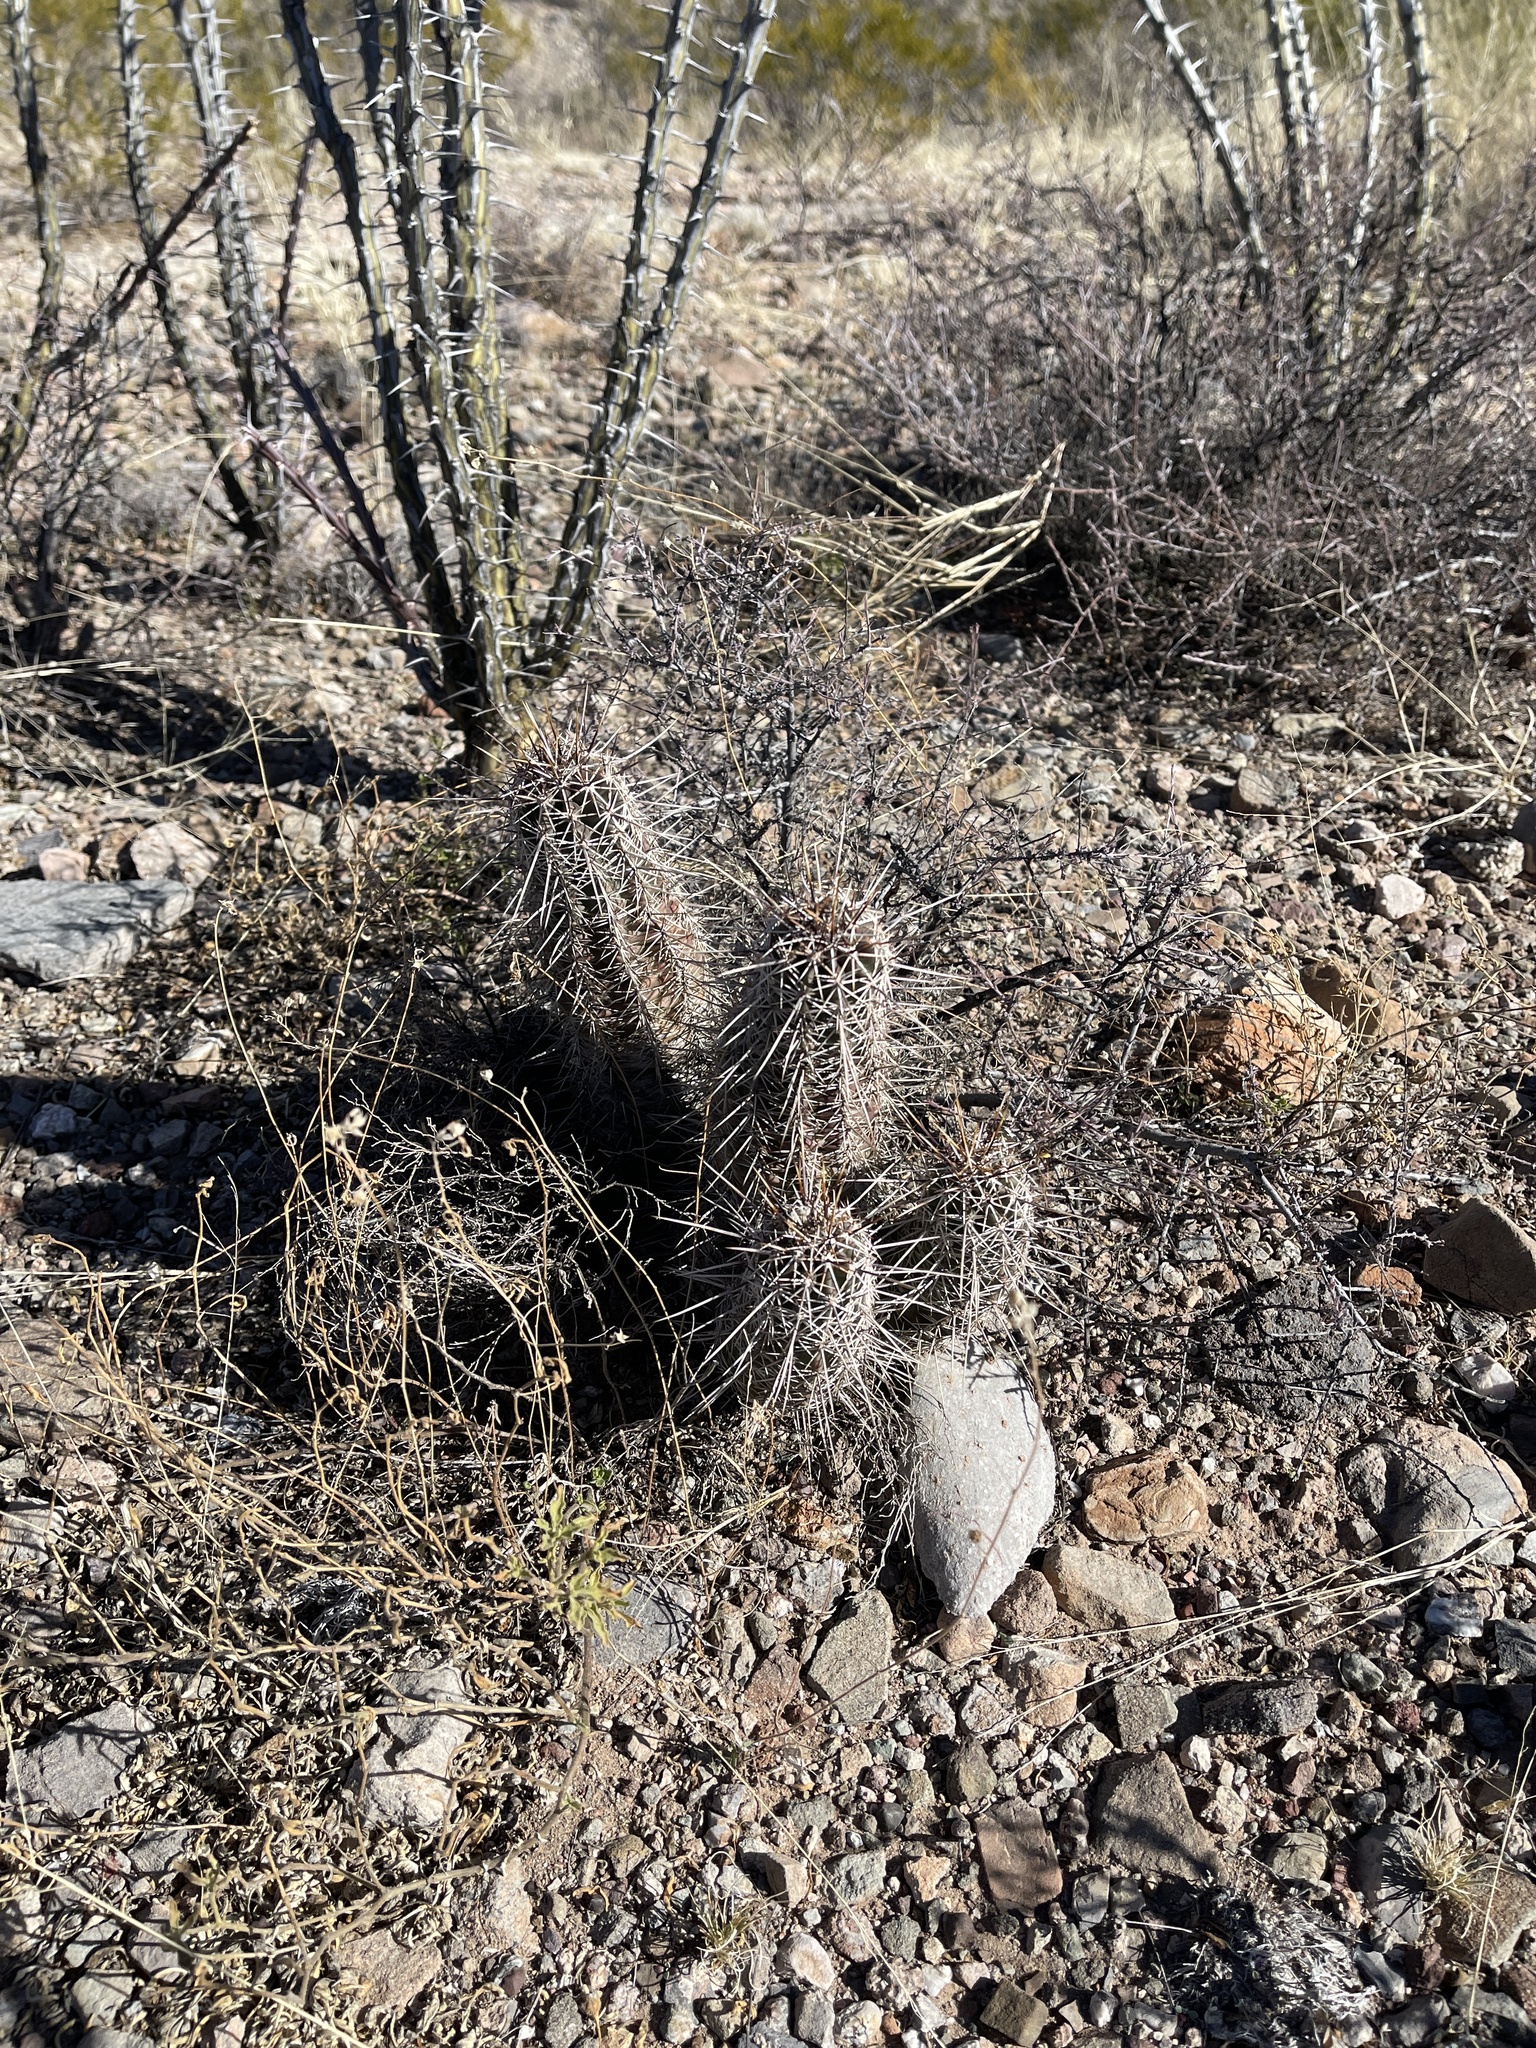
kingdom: Plantae
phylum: Tracheophyta
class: Magnoliopsida
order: Caryophyllales
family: Cactaceae
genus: Echinocereus
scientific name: Echinocereus fasciculatus
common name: Bundle hedgehog
